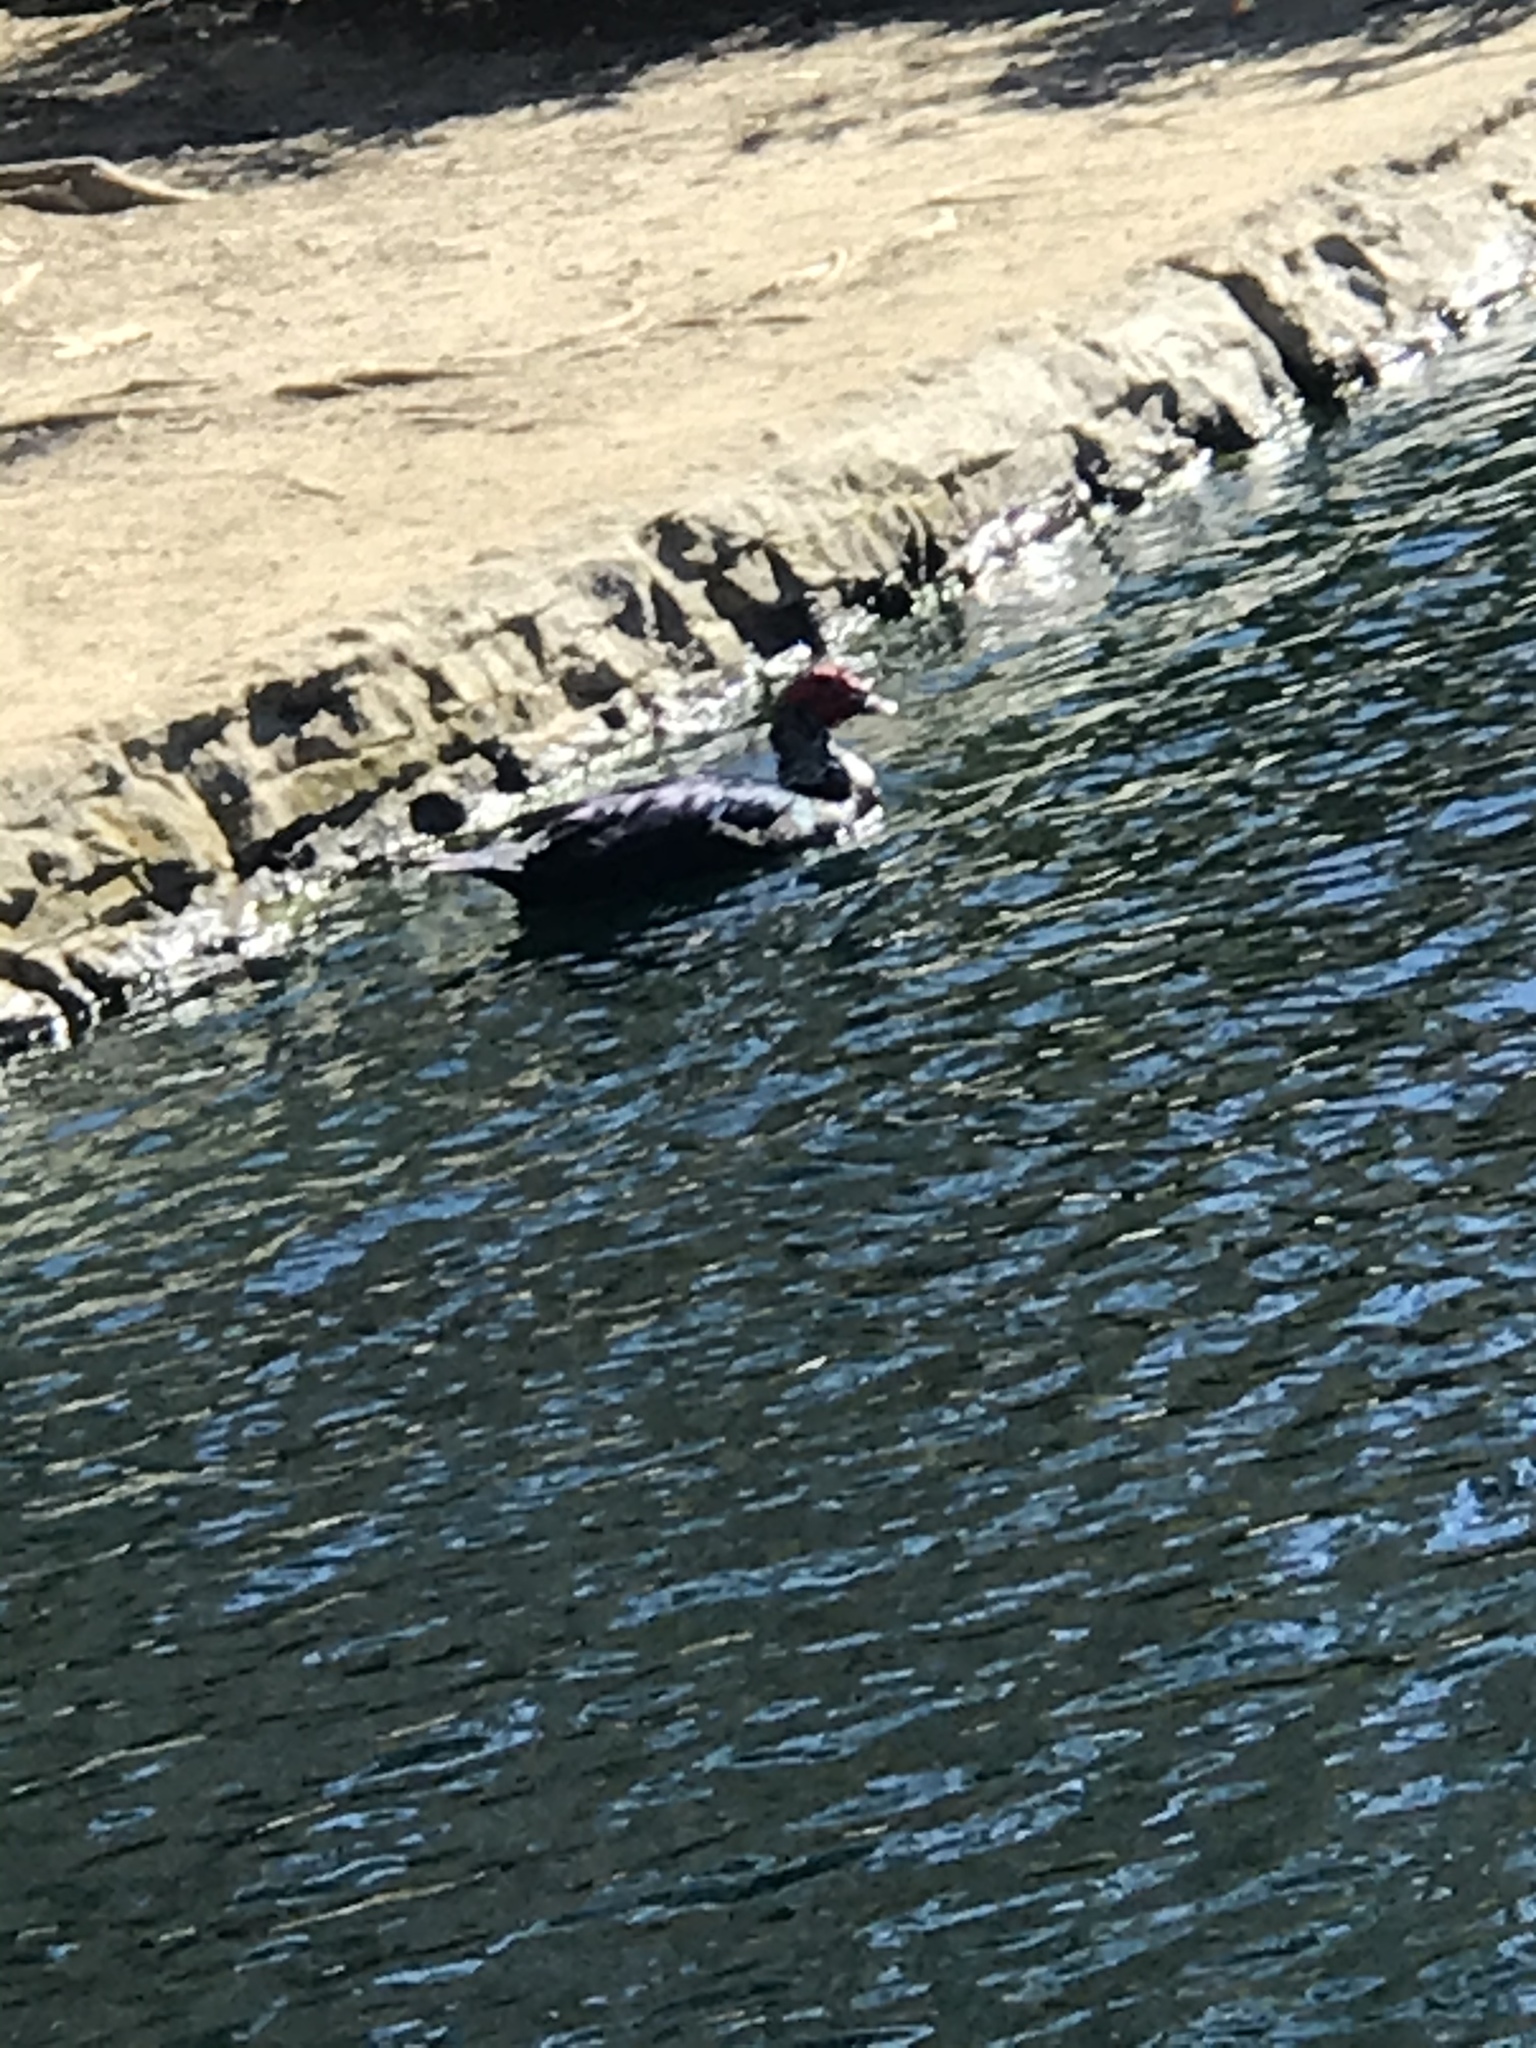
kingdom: Animalia
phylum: Chordata
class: Aves
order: Anseriformes
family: Anatidae
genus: Cairina
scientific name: Cairina moschata
